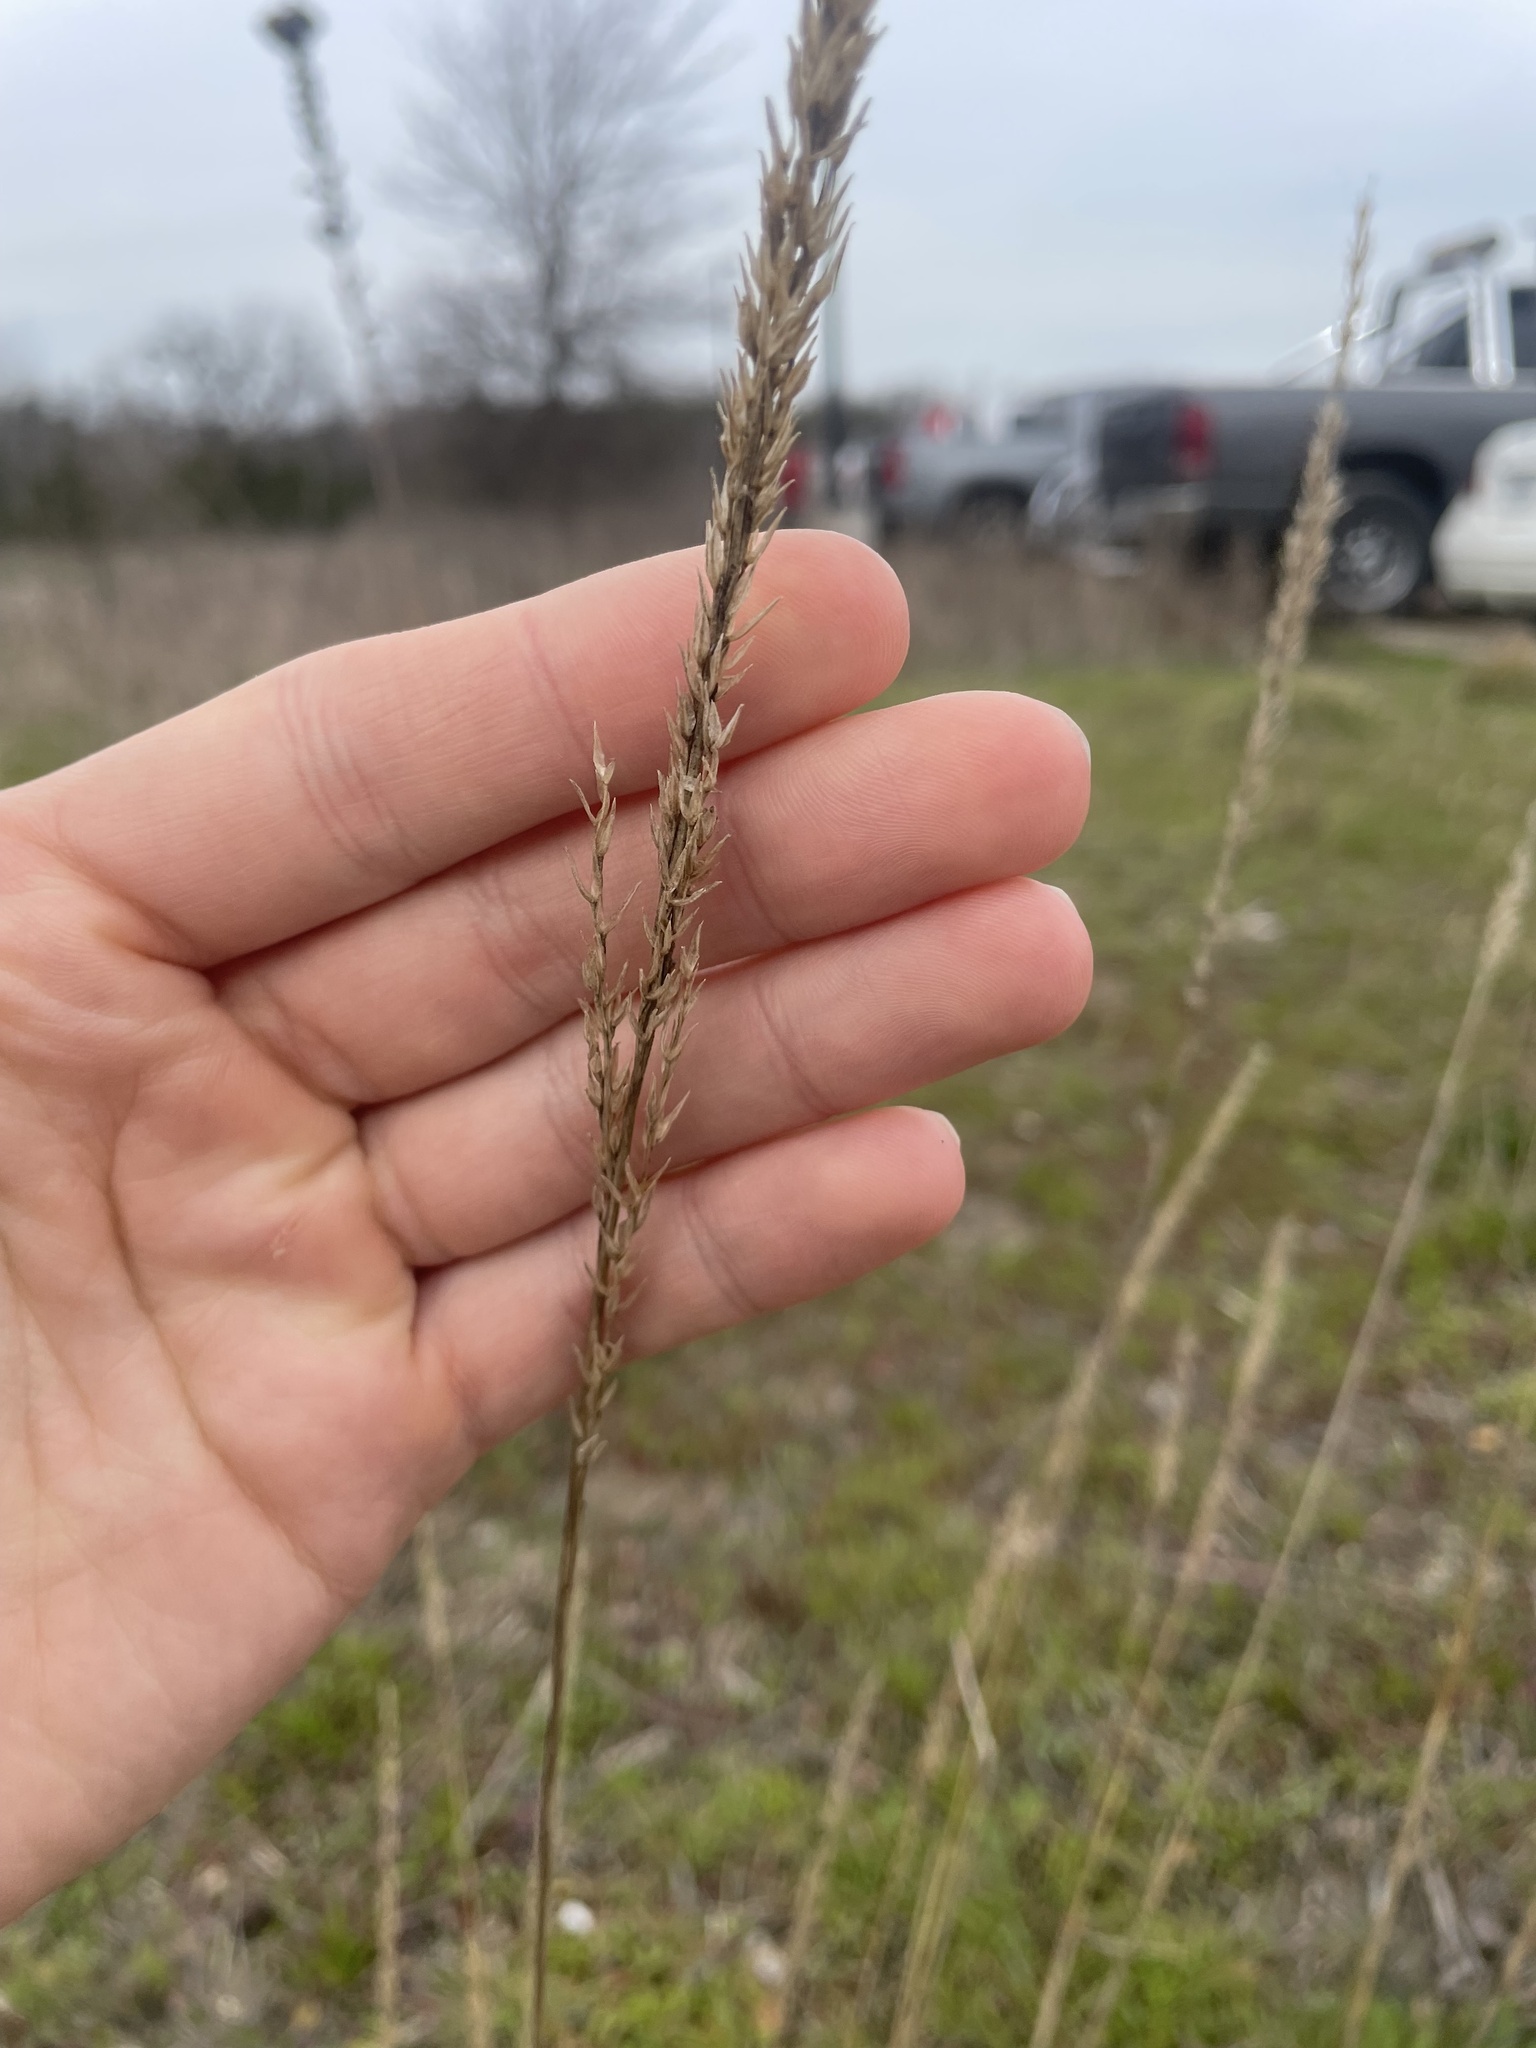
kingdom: Plantae
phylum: Tracheophyta
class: Liliopsida
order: Poales
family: Poaceae
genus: Tridens
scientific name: Tridens strictus
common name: Long-spike tridens
